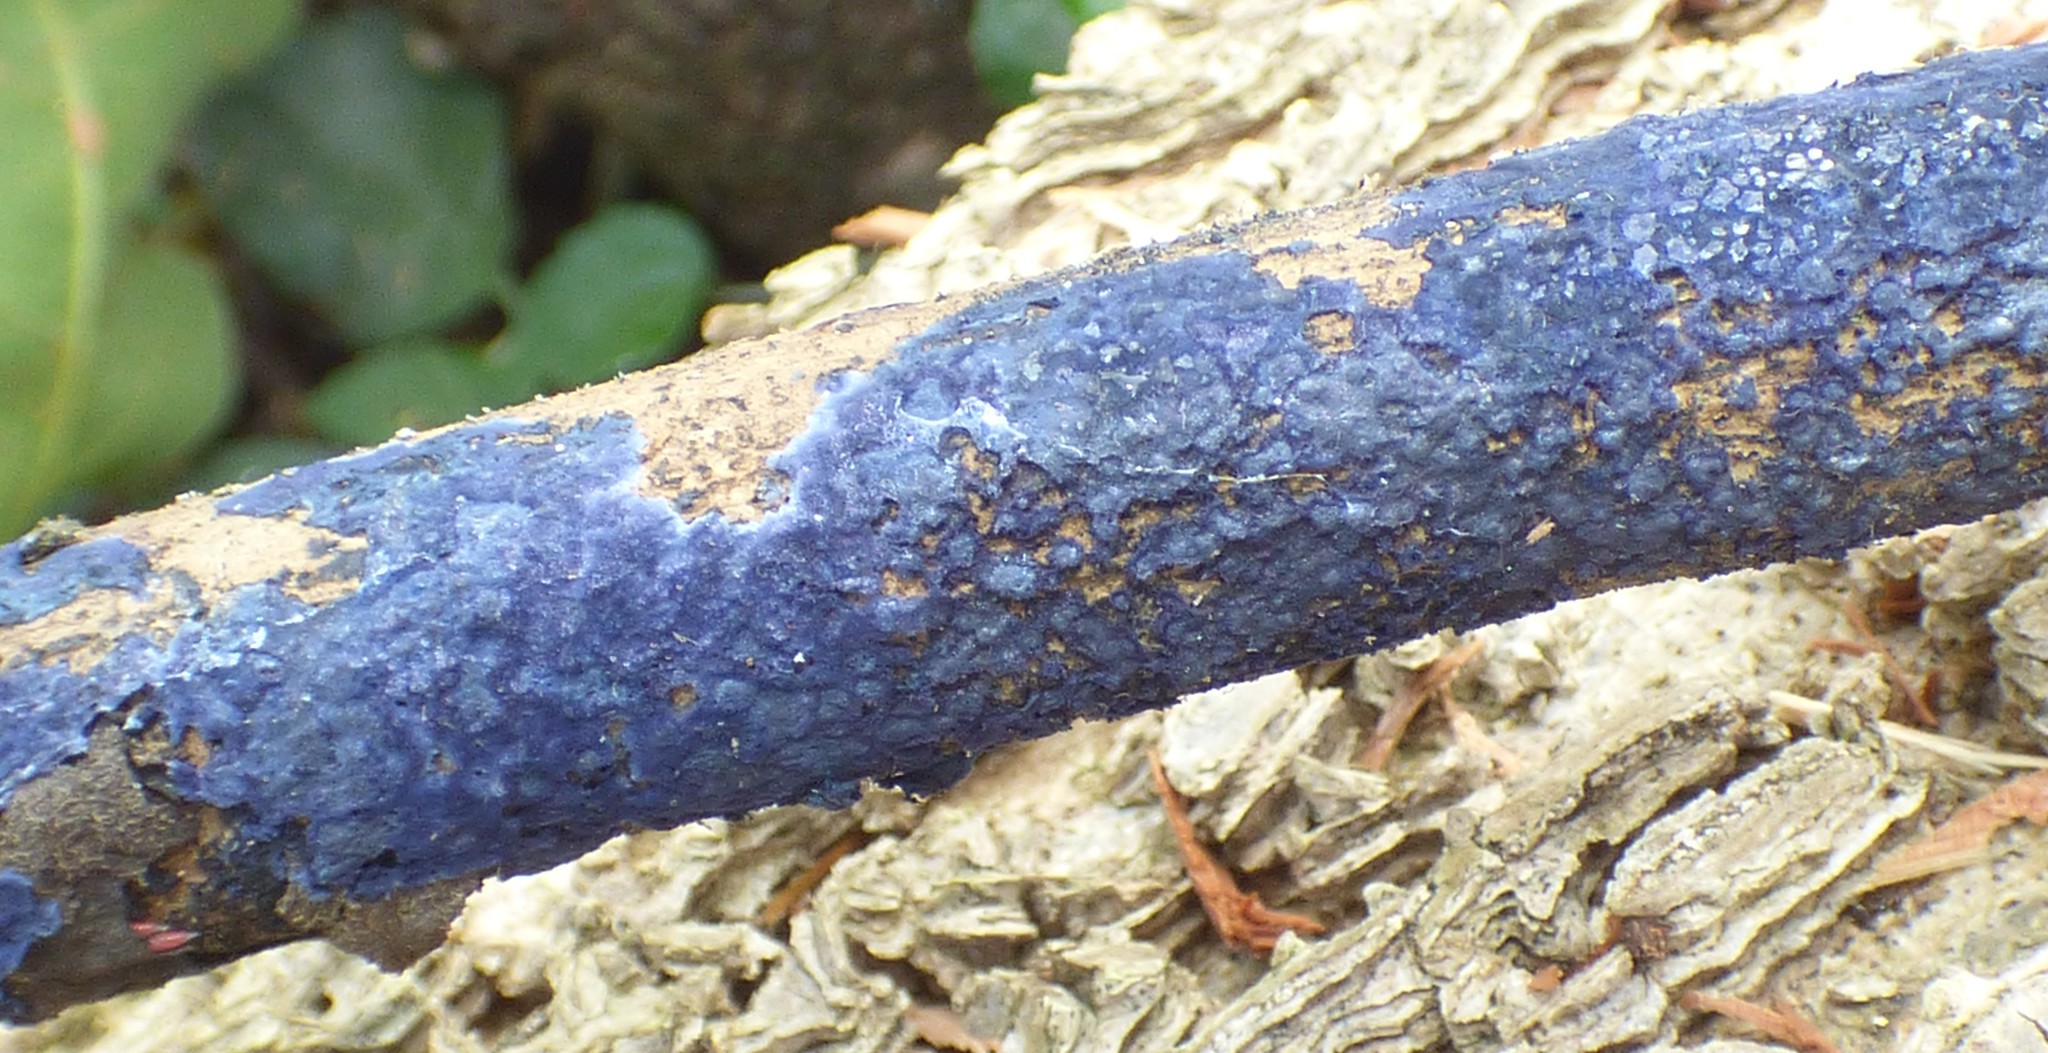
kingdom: Fungi
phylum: Basidiomycota
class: Agaricomycetes
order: Polyporales
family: Phanerochaetaceae
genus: Terana
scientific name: Terana coerulea
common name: Cobalt crust
